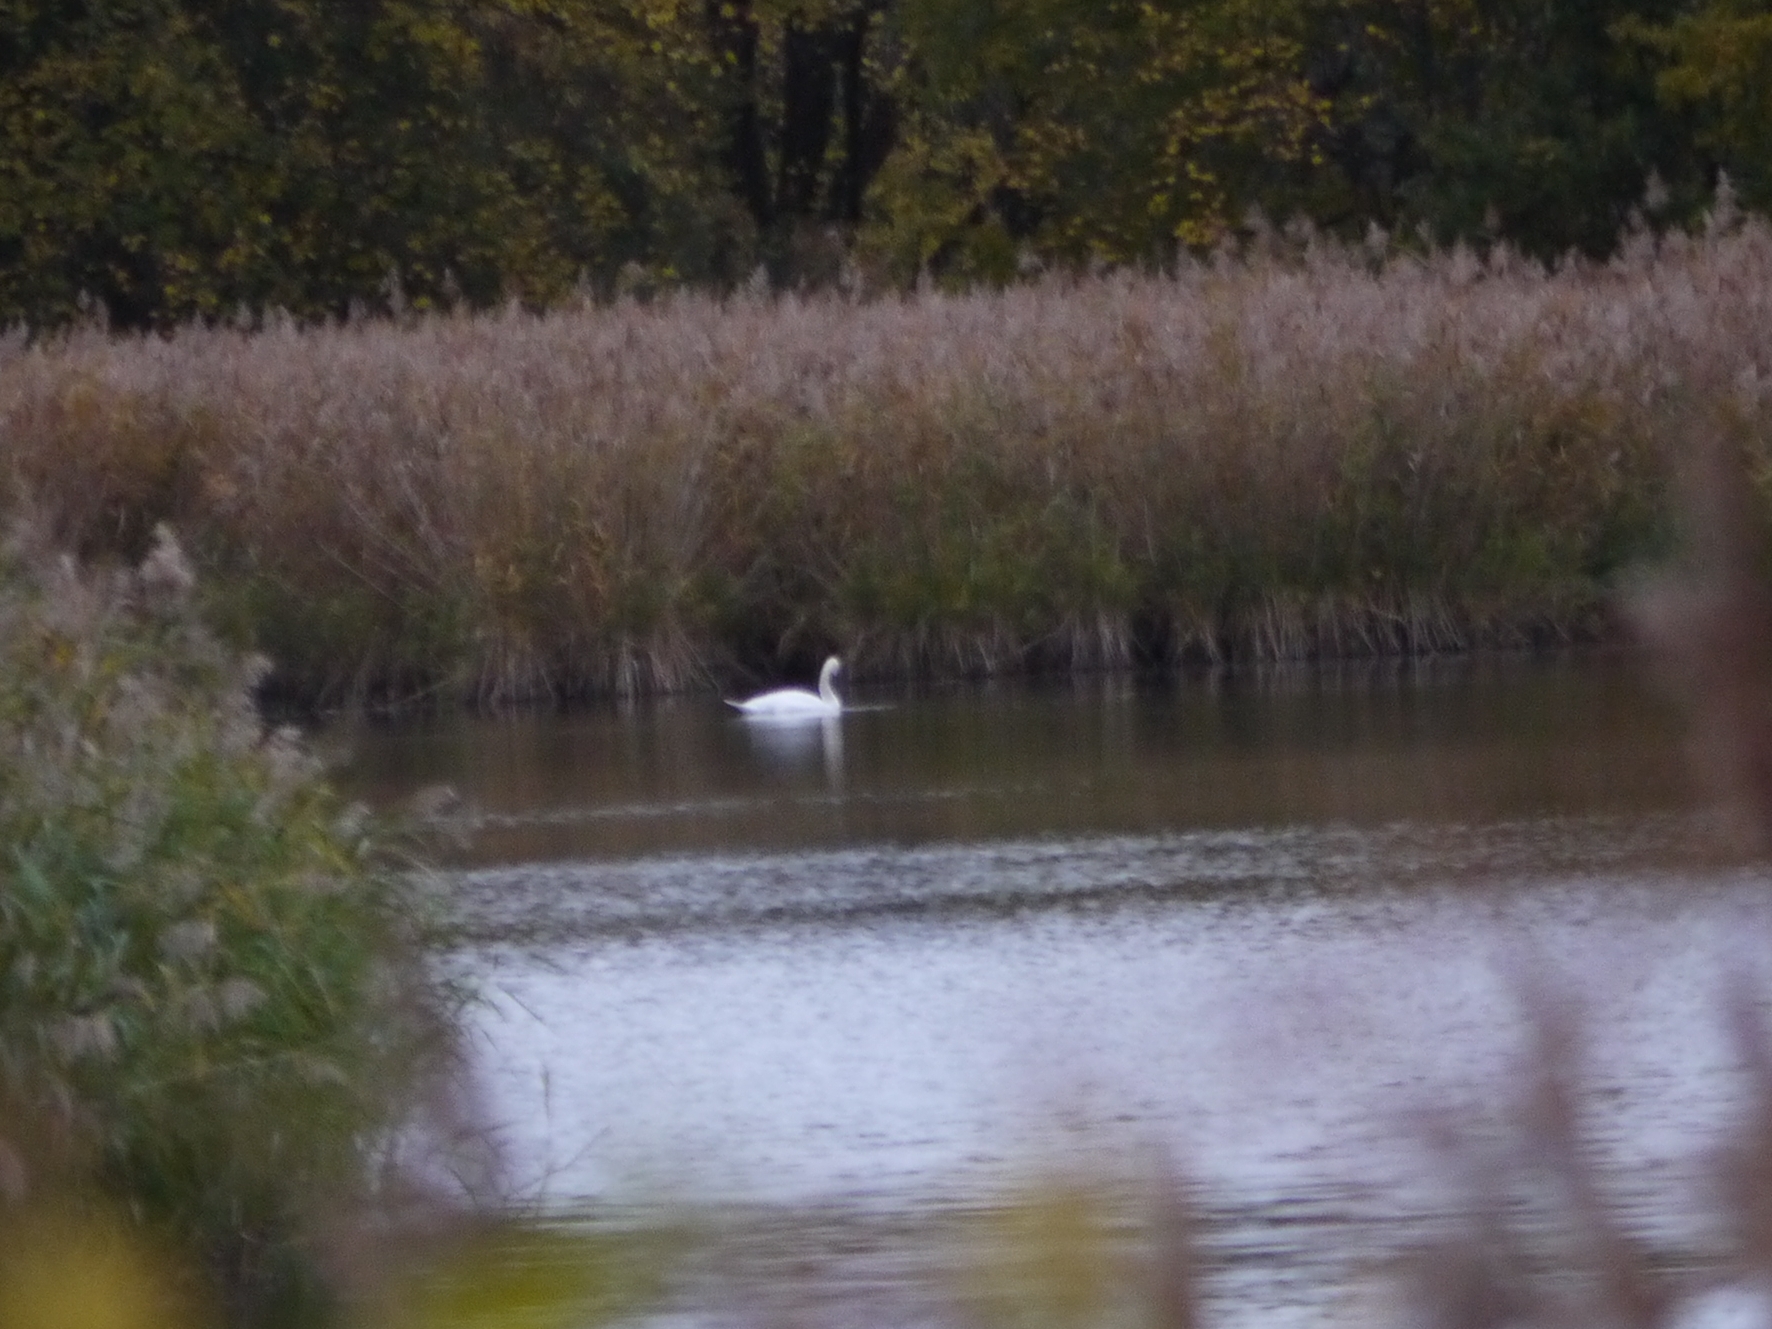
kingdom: Animalia
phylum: Chordata
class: Aves
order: Anseriformes
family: Anatidae
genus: Cygnus
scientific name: Cygnus olor
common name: Mute swan
